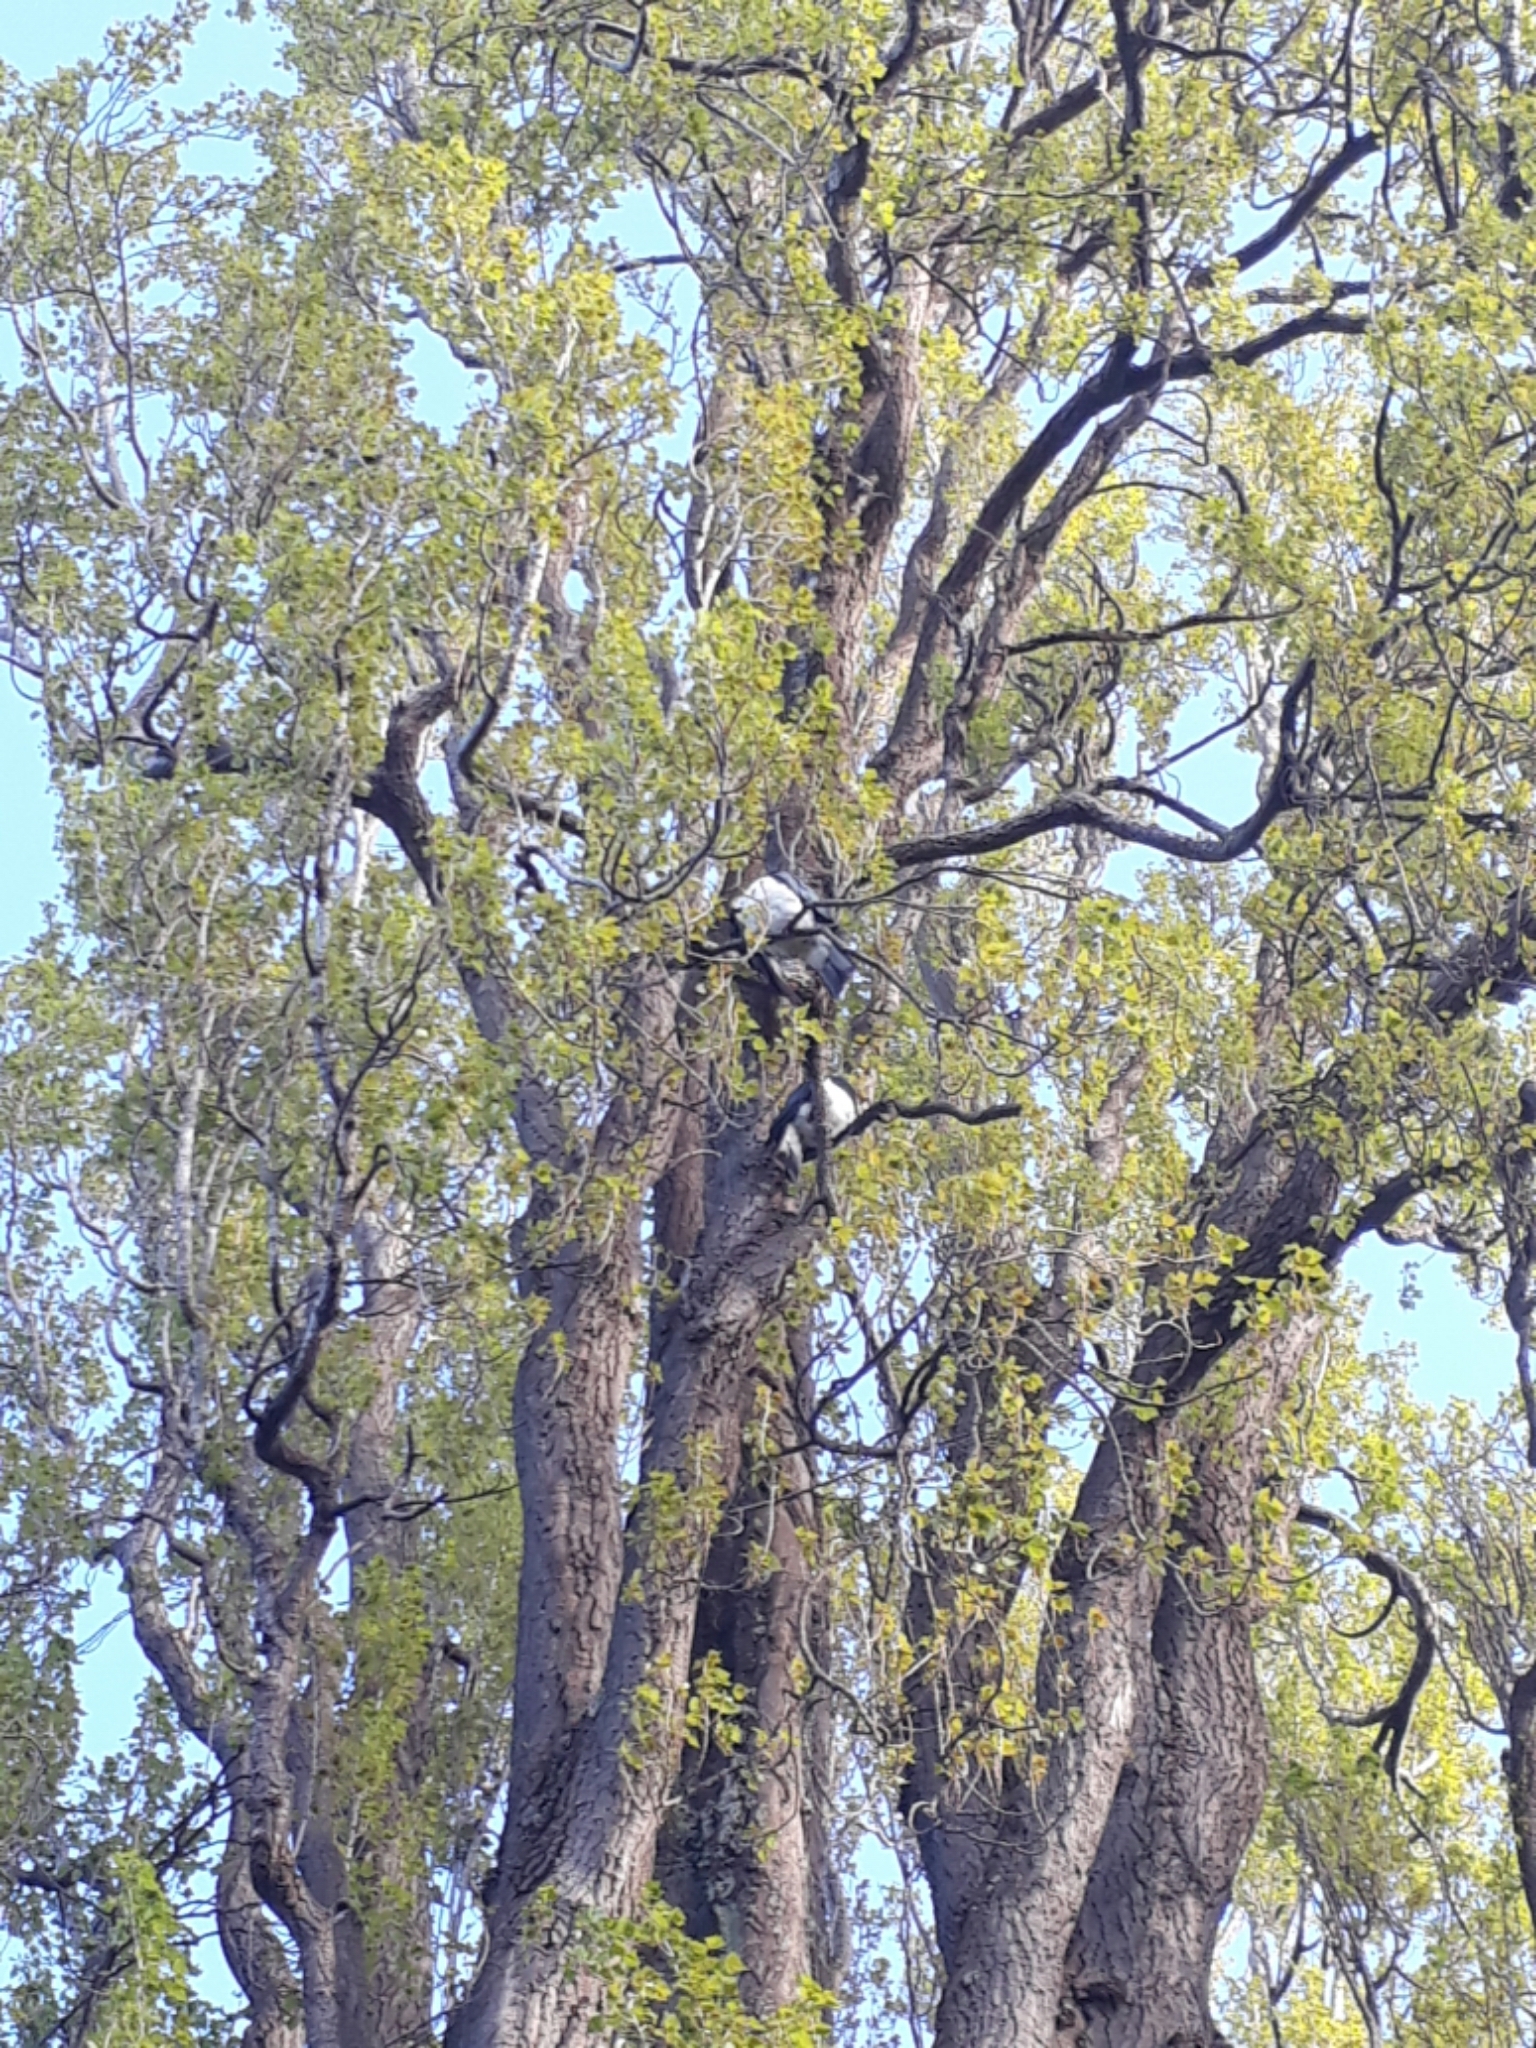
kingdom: Animalia
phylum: Chordata
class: Aves
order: Columbiformes
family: Columbidae
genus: Hemiphaga
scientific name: Hemiphaga novaeseelandiae
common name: New zealand pigeon
